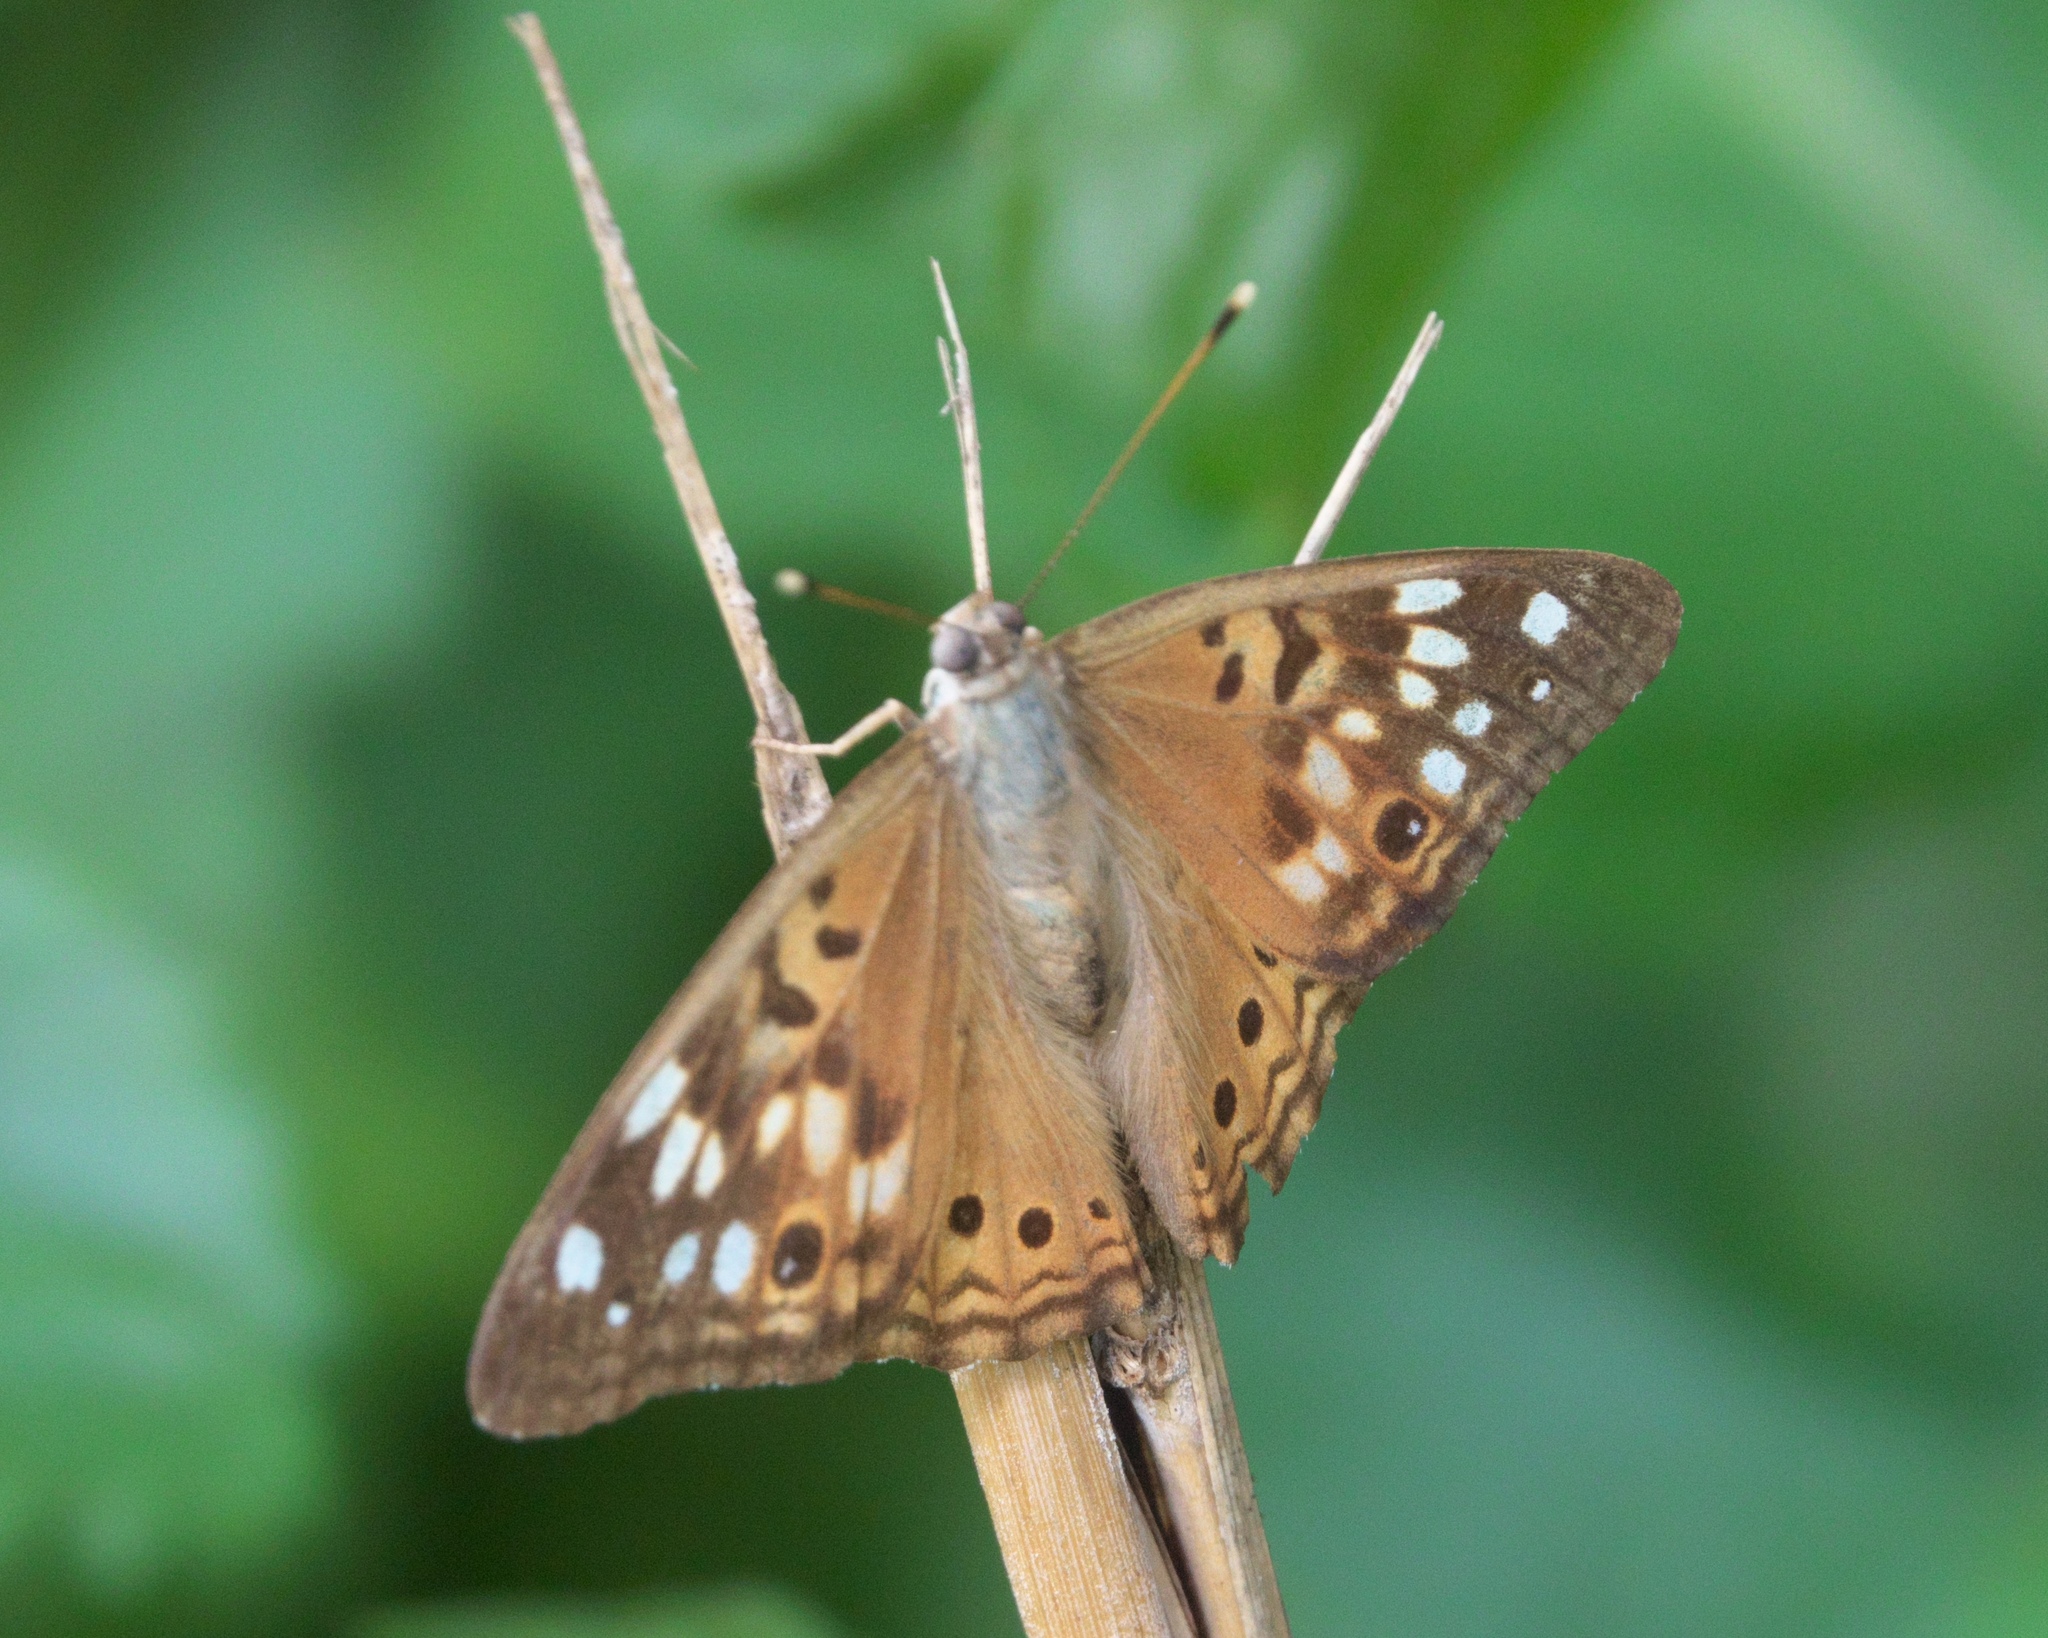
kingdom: Animalia
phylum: Arthropoda
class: Insecta
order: Lepidoptera
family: Nymphalidae
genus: Asterocampa
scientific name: Asterocampa celtis
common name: Hackberry emperor
